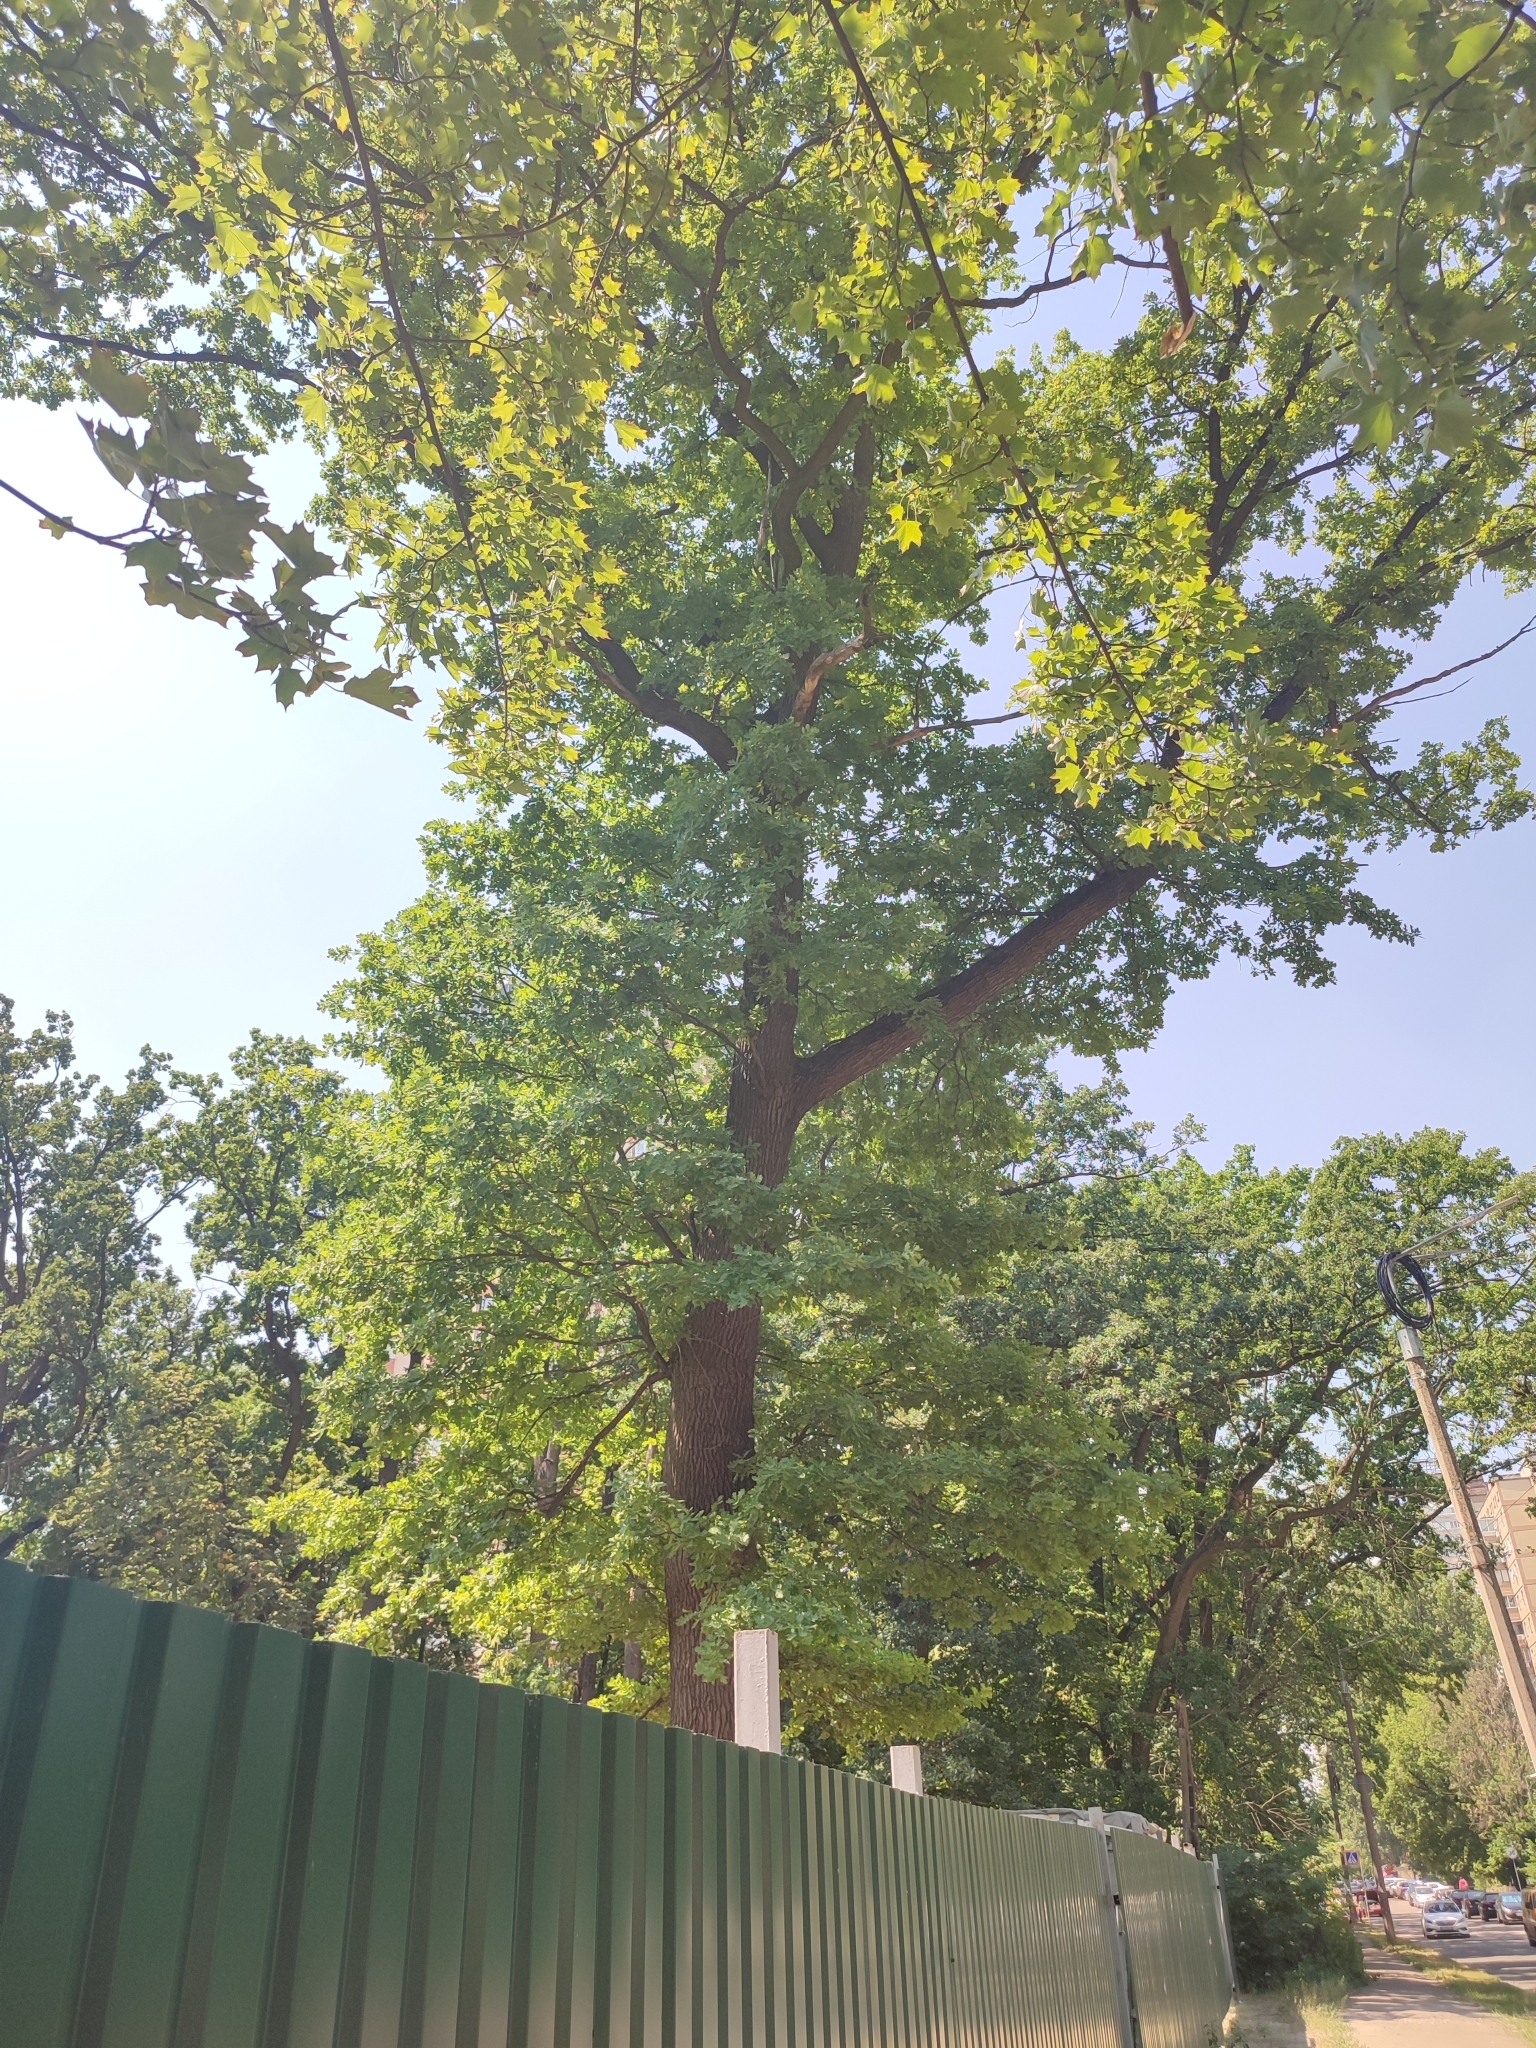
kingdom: Plantae
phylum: Tracheophyta
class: Magnoliopsida
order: Fagales
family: Fagaceae
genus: Quercus
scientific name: Quercus robur
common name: Pedunculate oak
